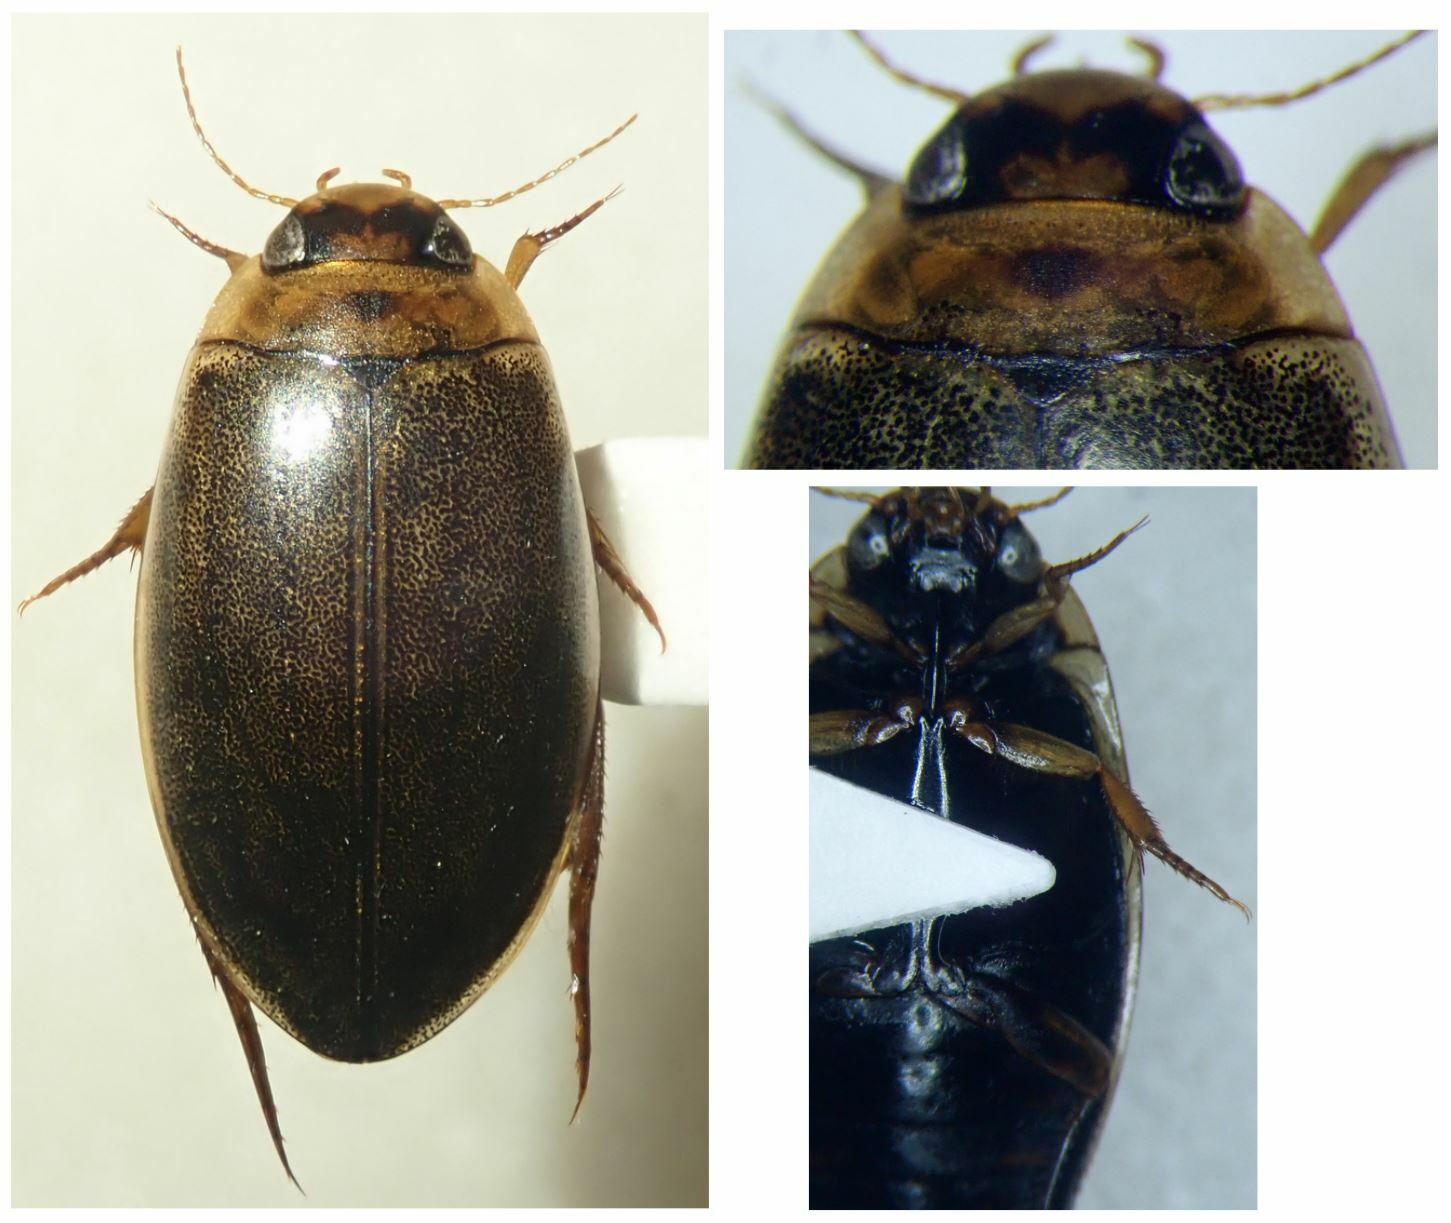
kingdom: Animalia
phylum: Arthropoda
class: Insecta
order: Coleoptera
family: Dytiscidae
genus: Rhantus
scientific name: Rhantus suturalis
